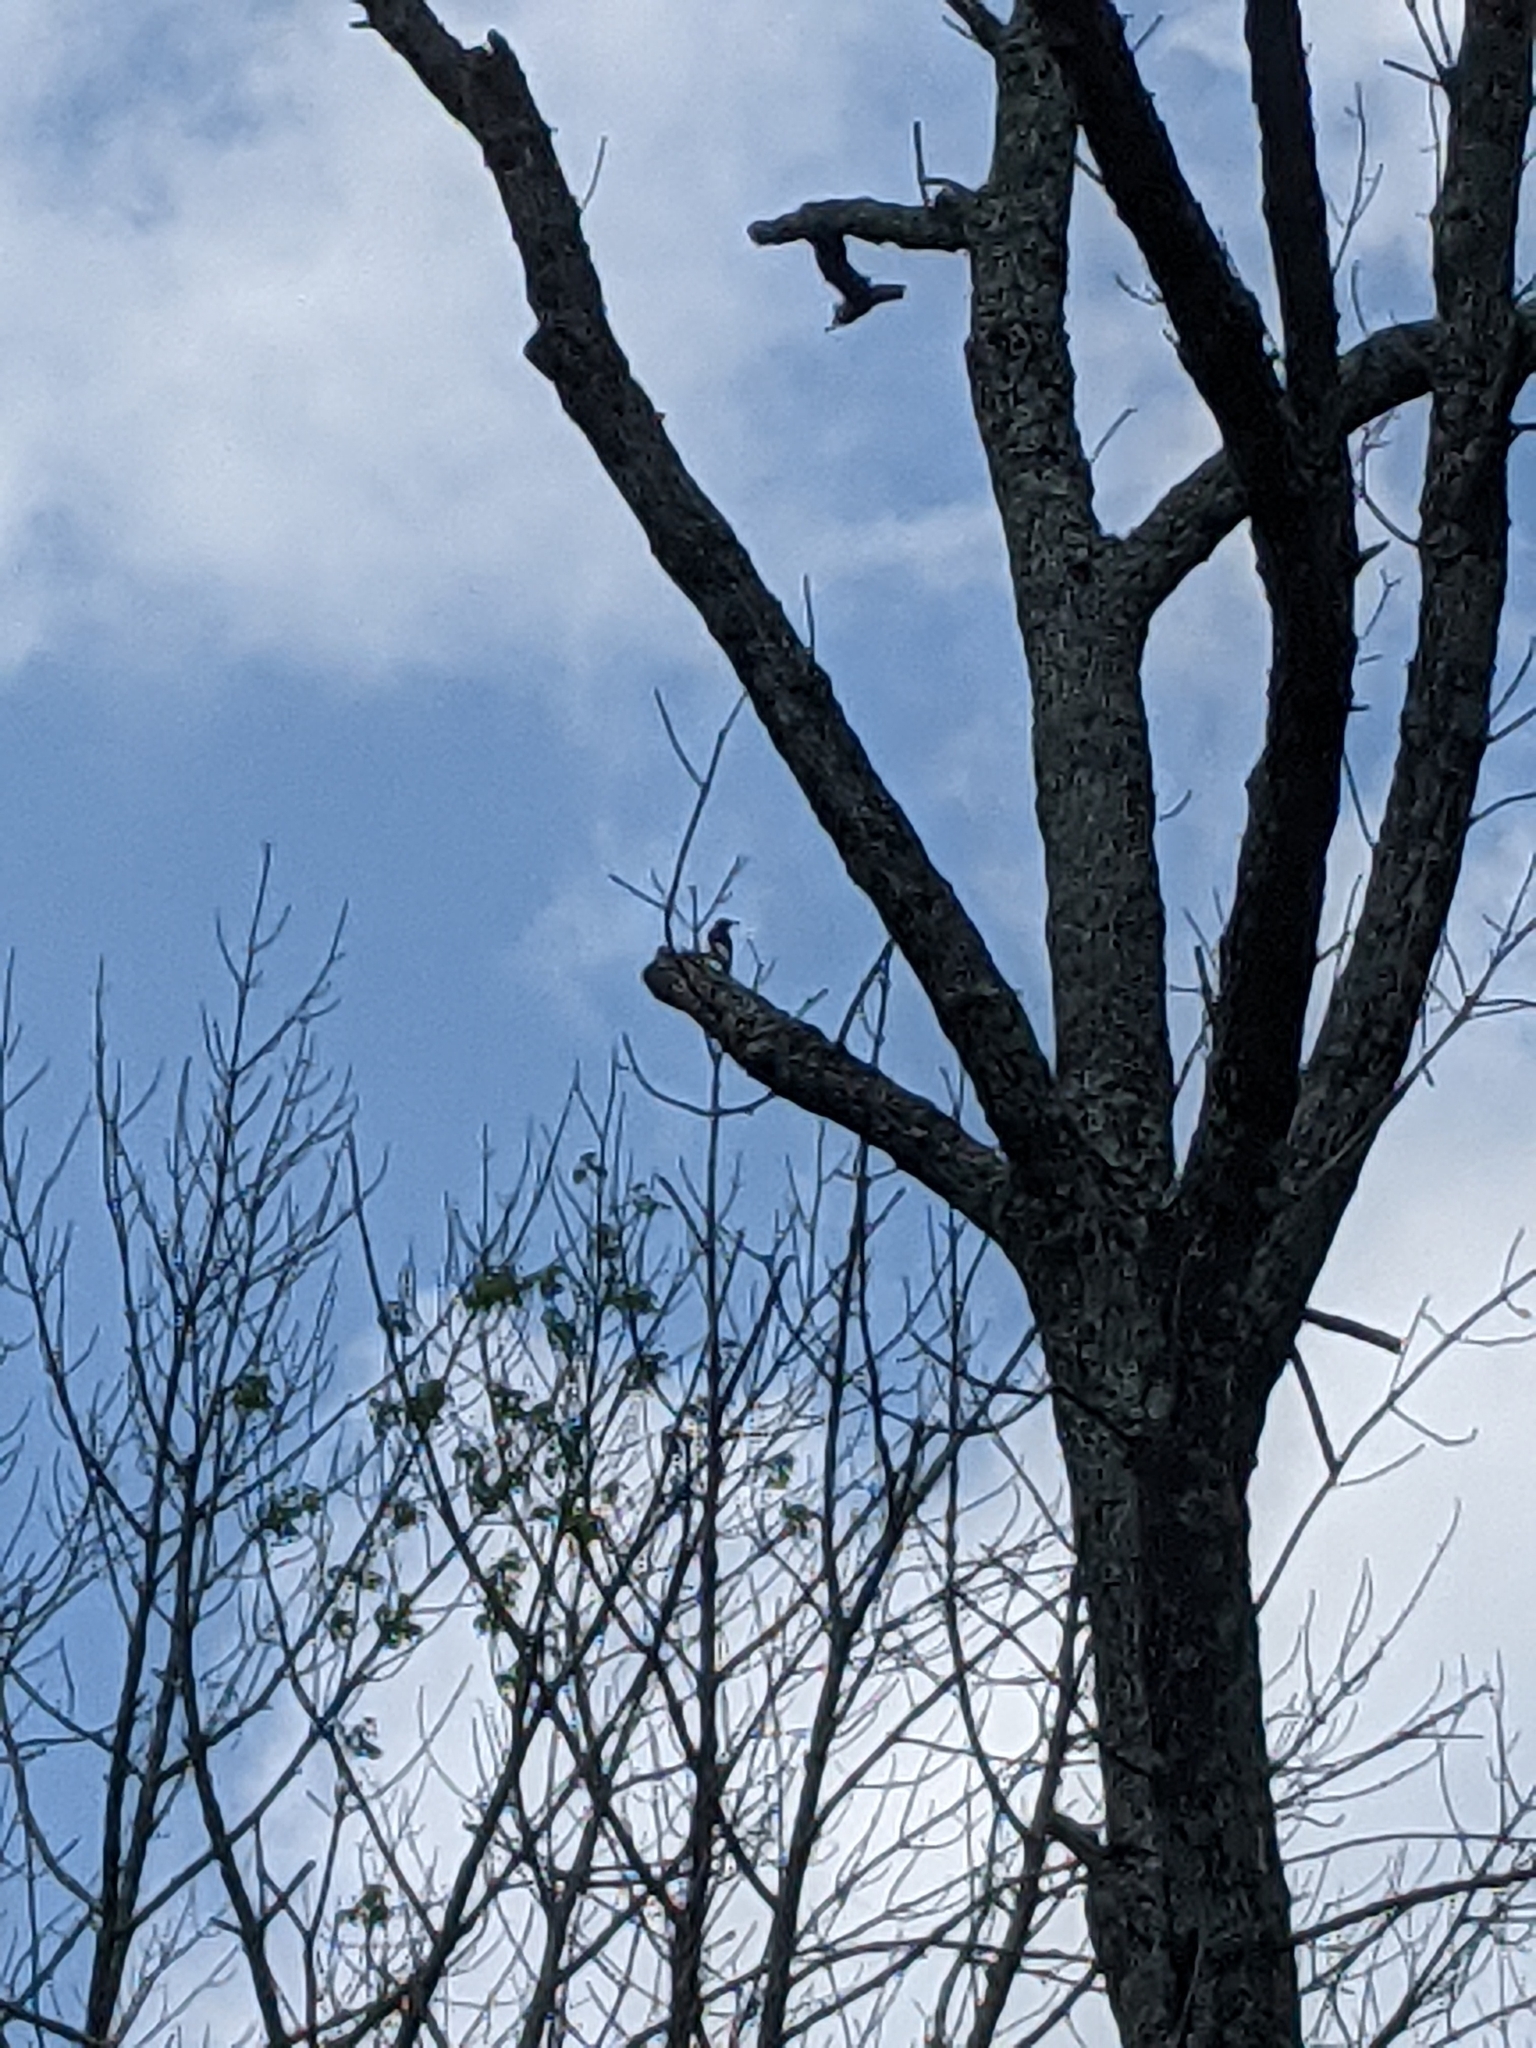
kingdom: Animalia
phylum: Chordata
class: Aves
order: Piciformes
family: Picidae
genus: Melanerpes
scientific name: Melanerpes erythrocephalus
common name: Red-headed woodpecker
